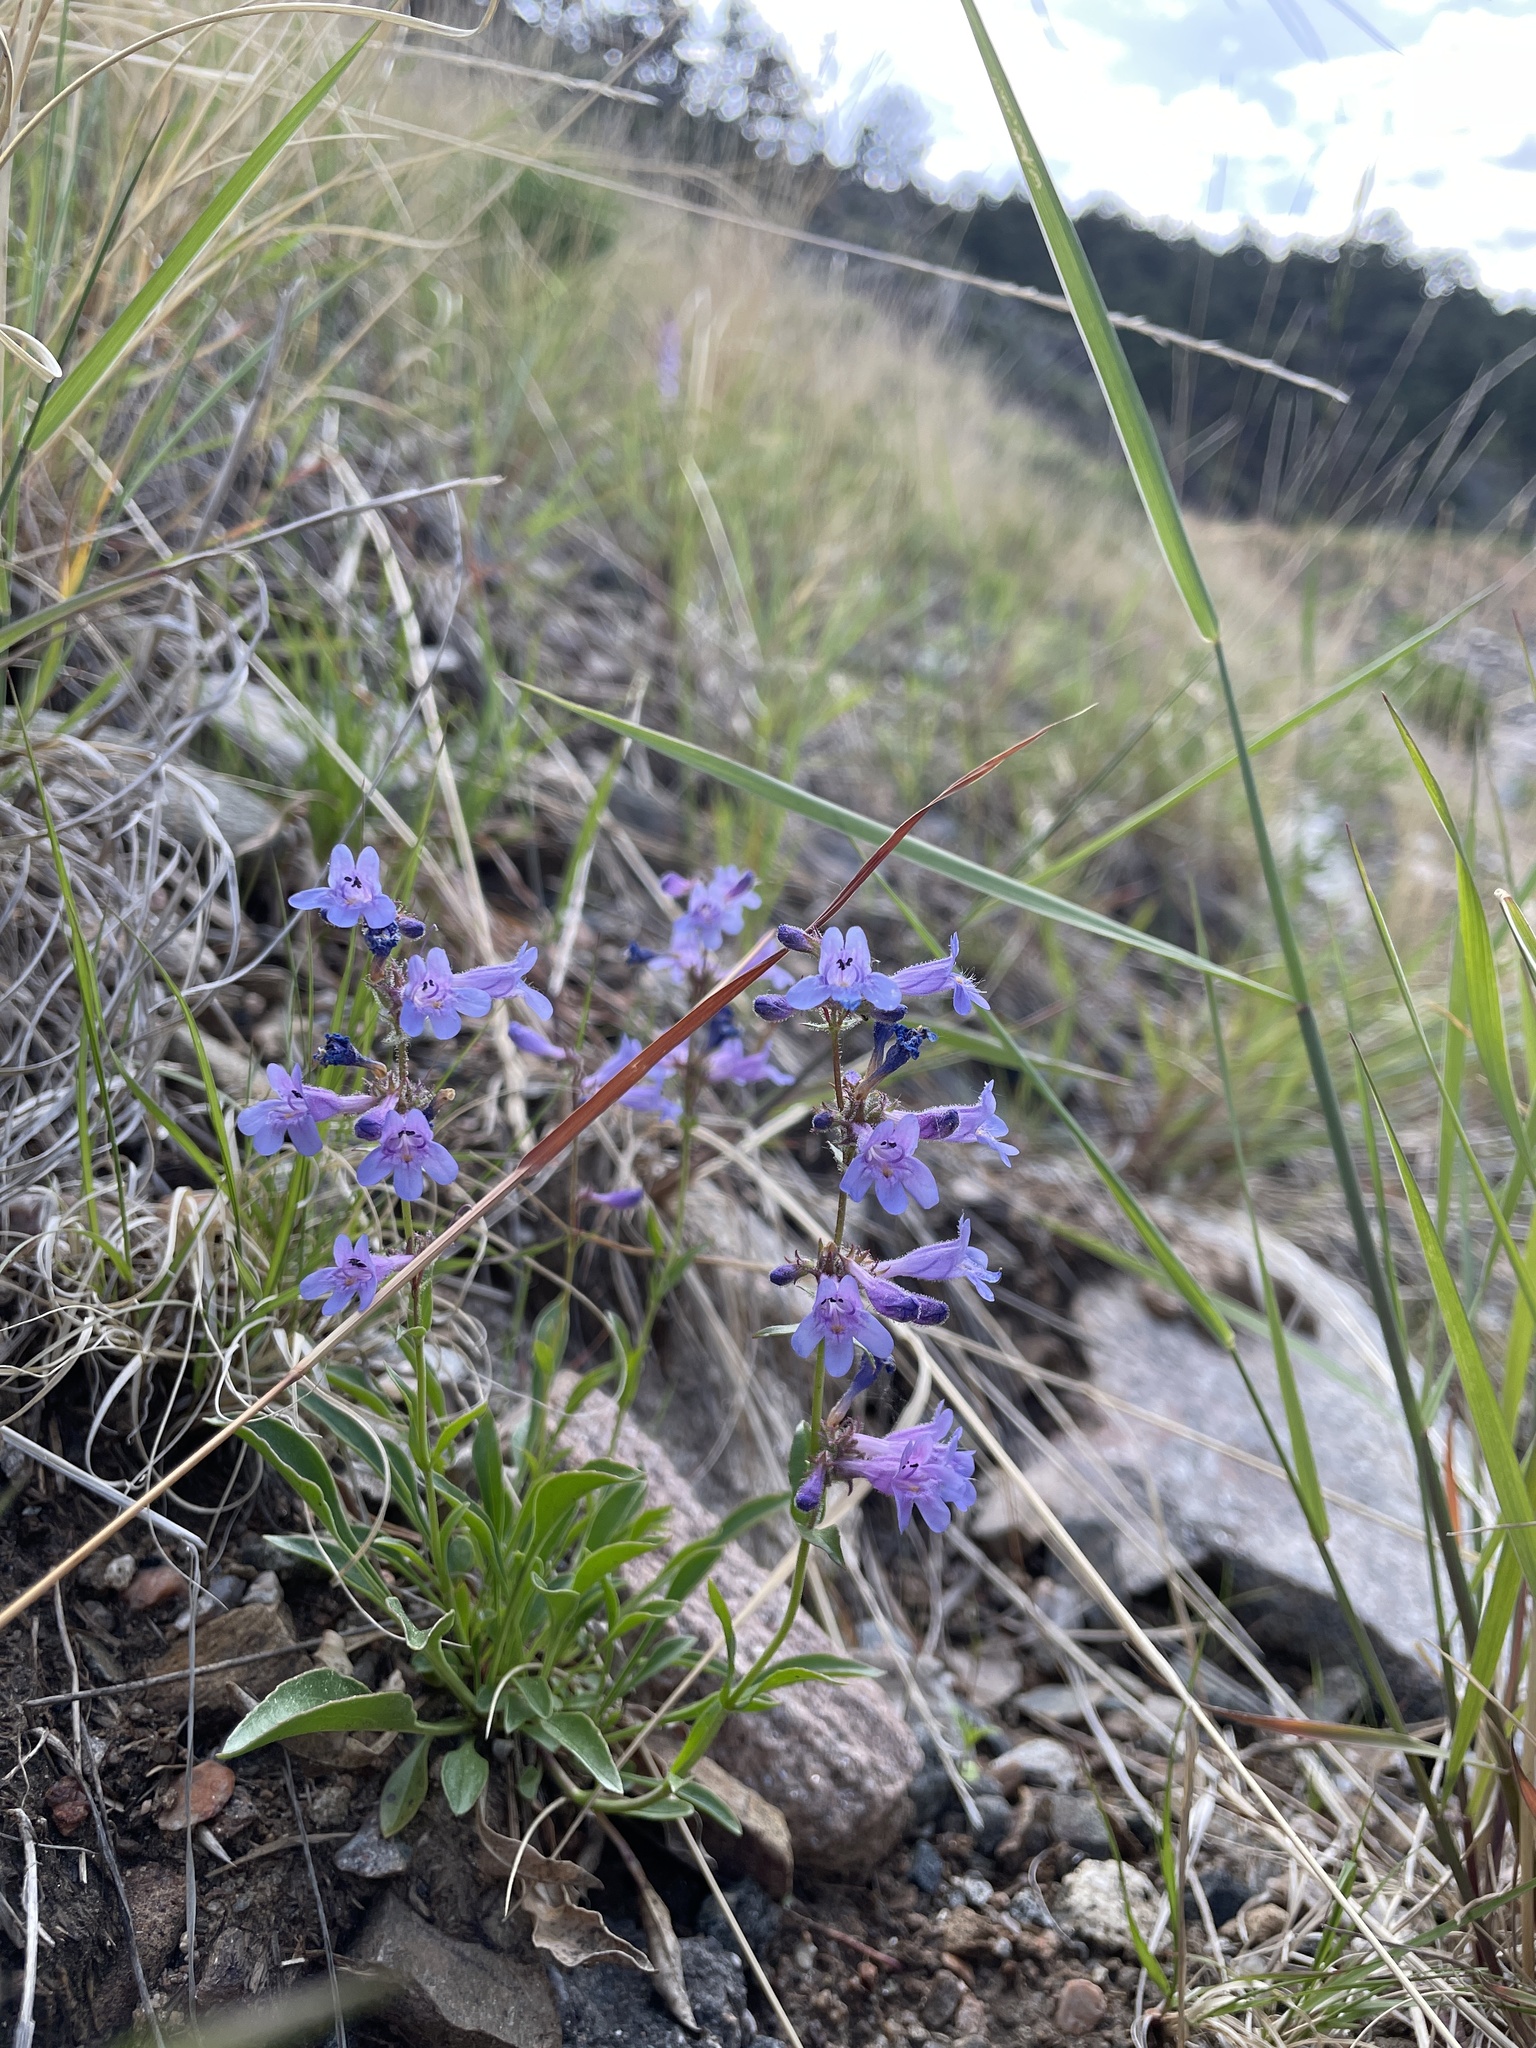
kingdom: Plantae
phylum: Tracheophyta
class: Magnoliopsida
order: Lamiales
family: Plantaginaceae
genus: Penstemon
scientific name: Penstemon virens
